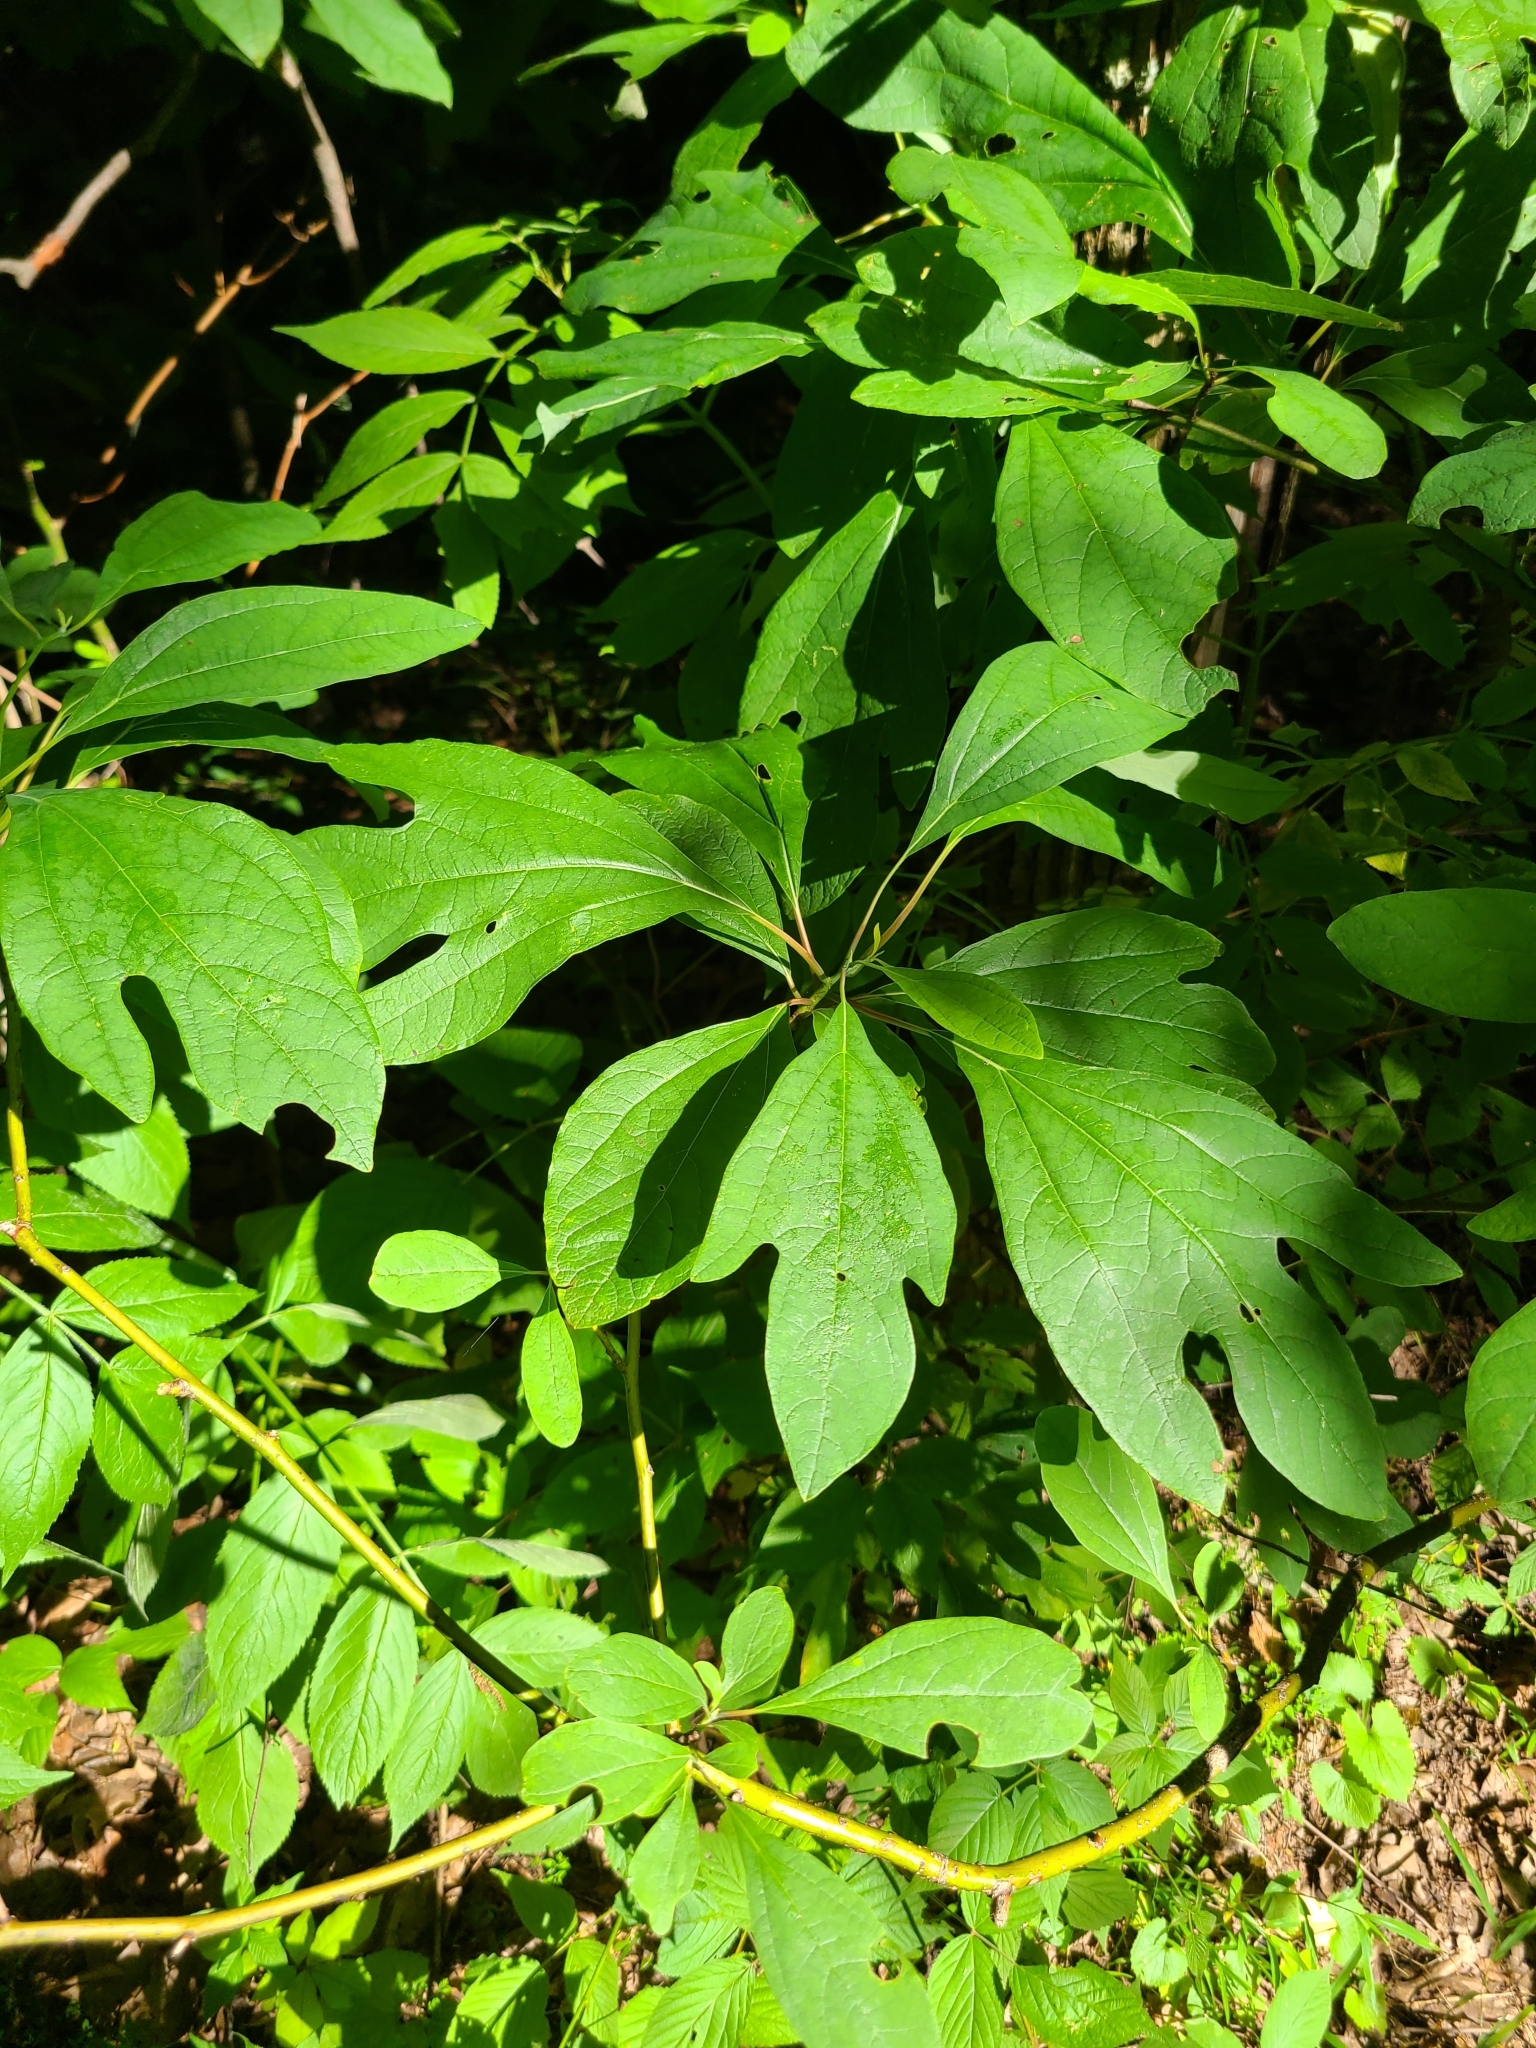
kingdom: Plantae
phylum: Tracheophyta
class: Magnoliopsida
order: Laurales
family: Lauraceae
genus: Sassafras
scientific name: Sassafras albidum
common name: Sassafras
